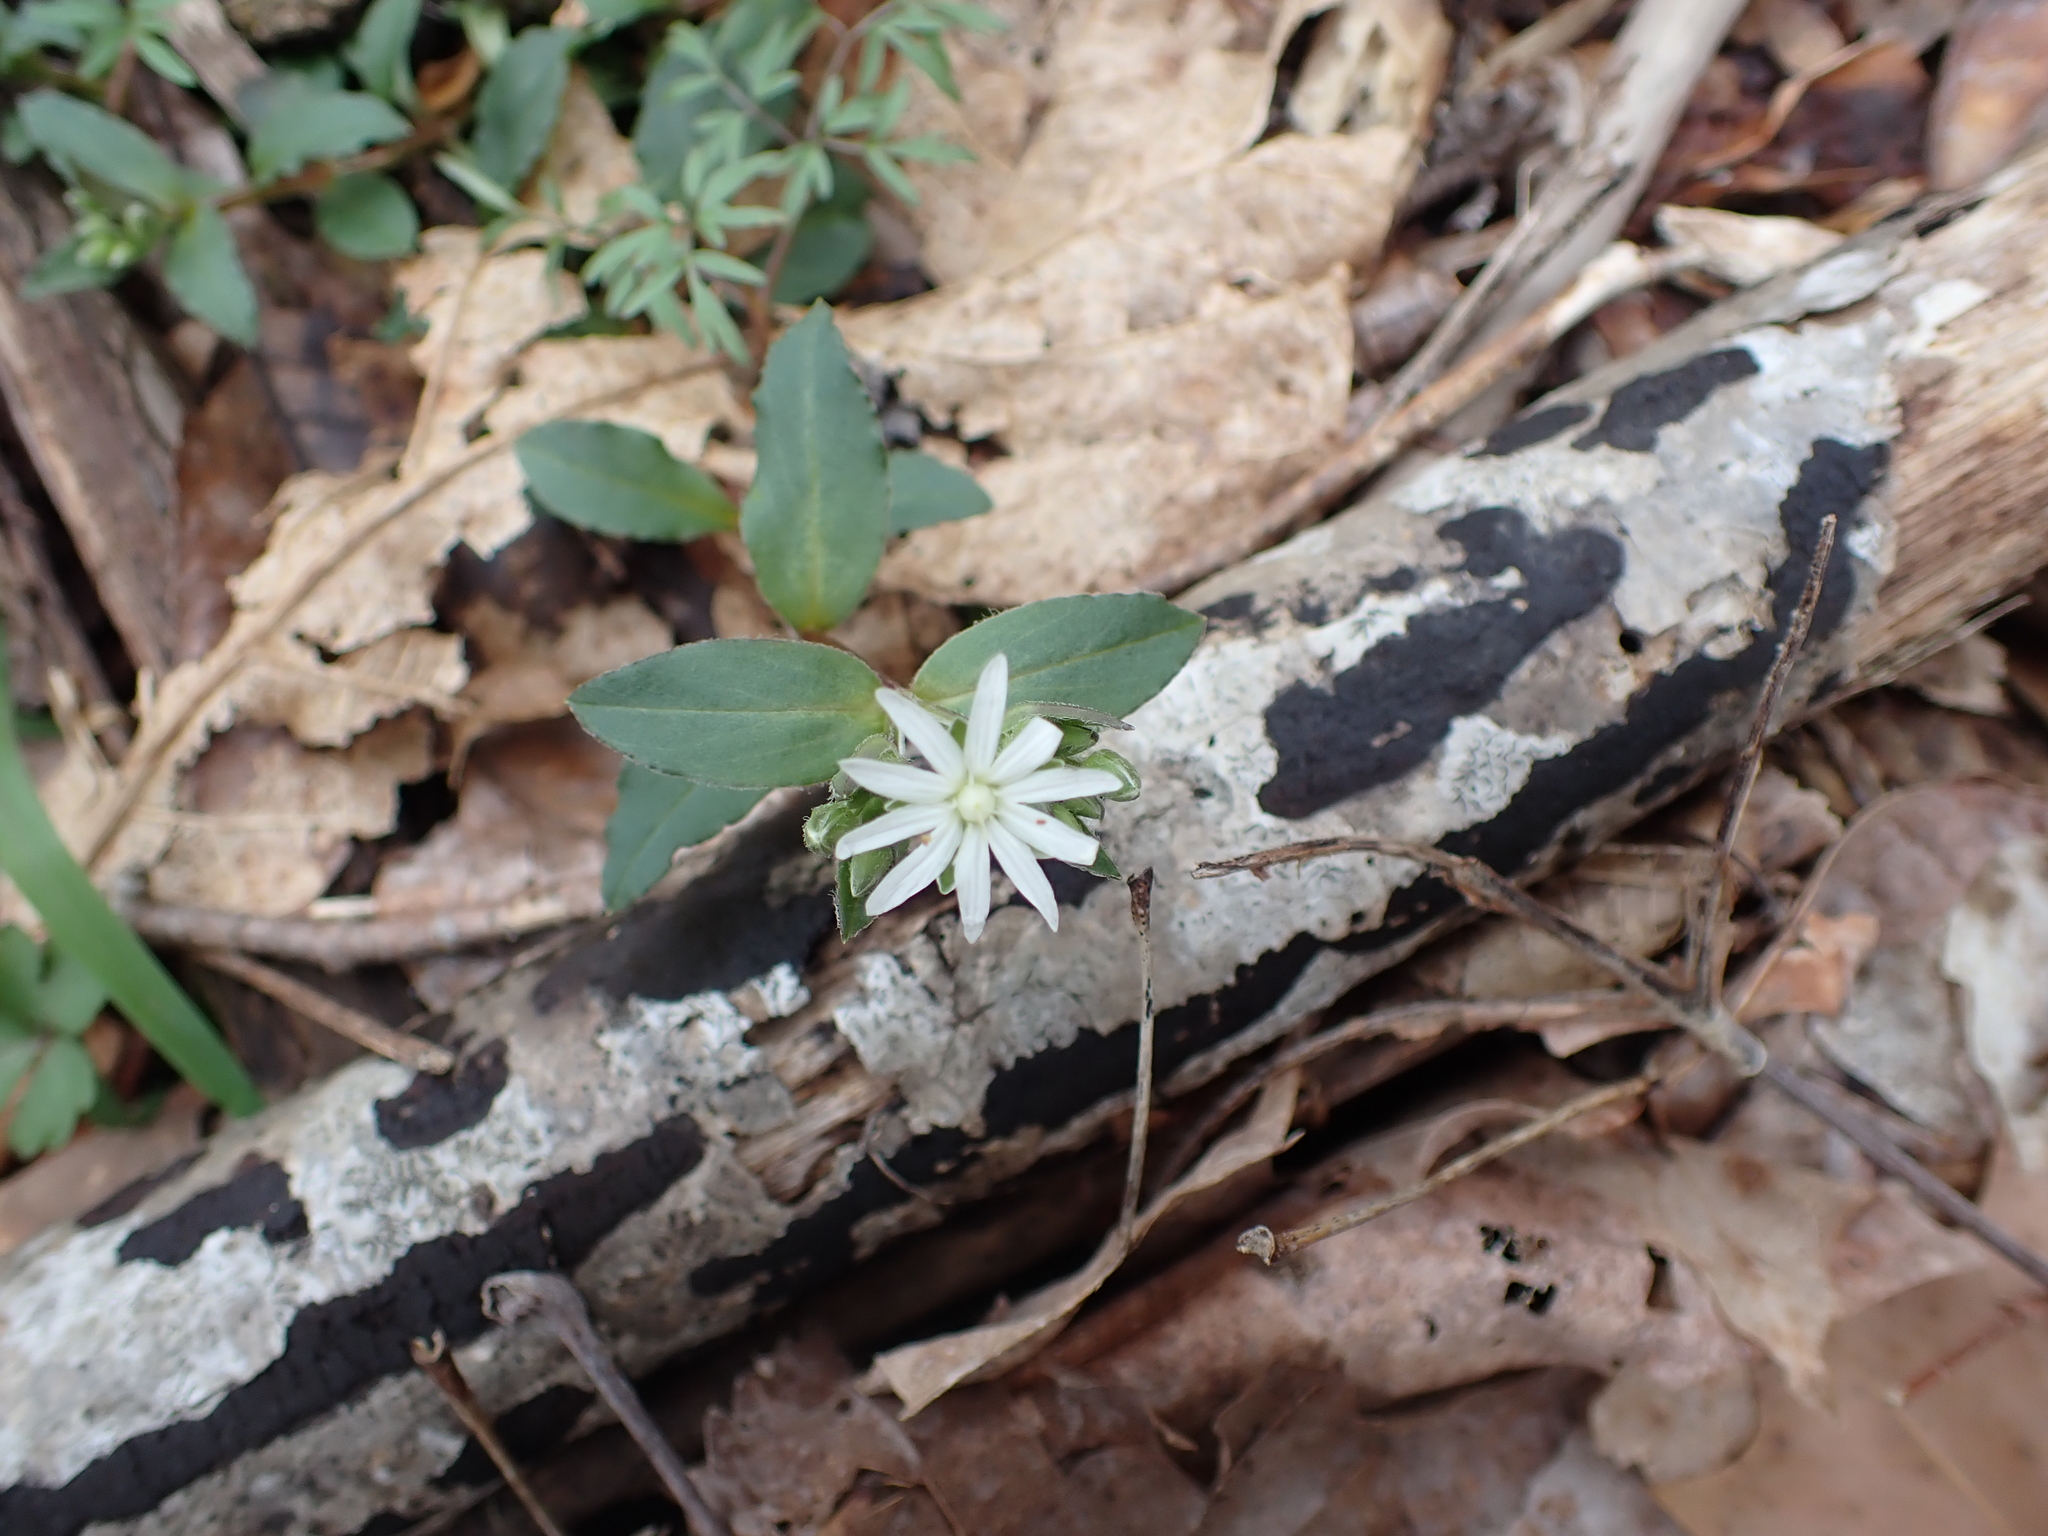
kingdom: Plantae
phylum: Tracheophyta
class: Magnoliopsida
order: Caryophyllales
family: Caryophyllaceae
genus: Stellaria
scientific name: Stellaria pubera
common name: Star chickweed
